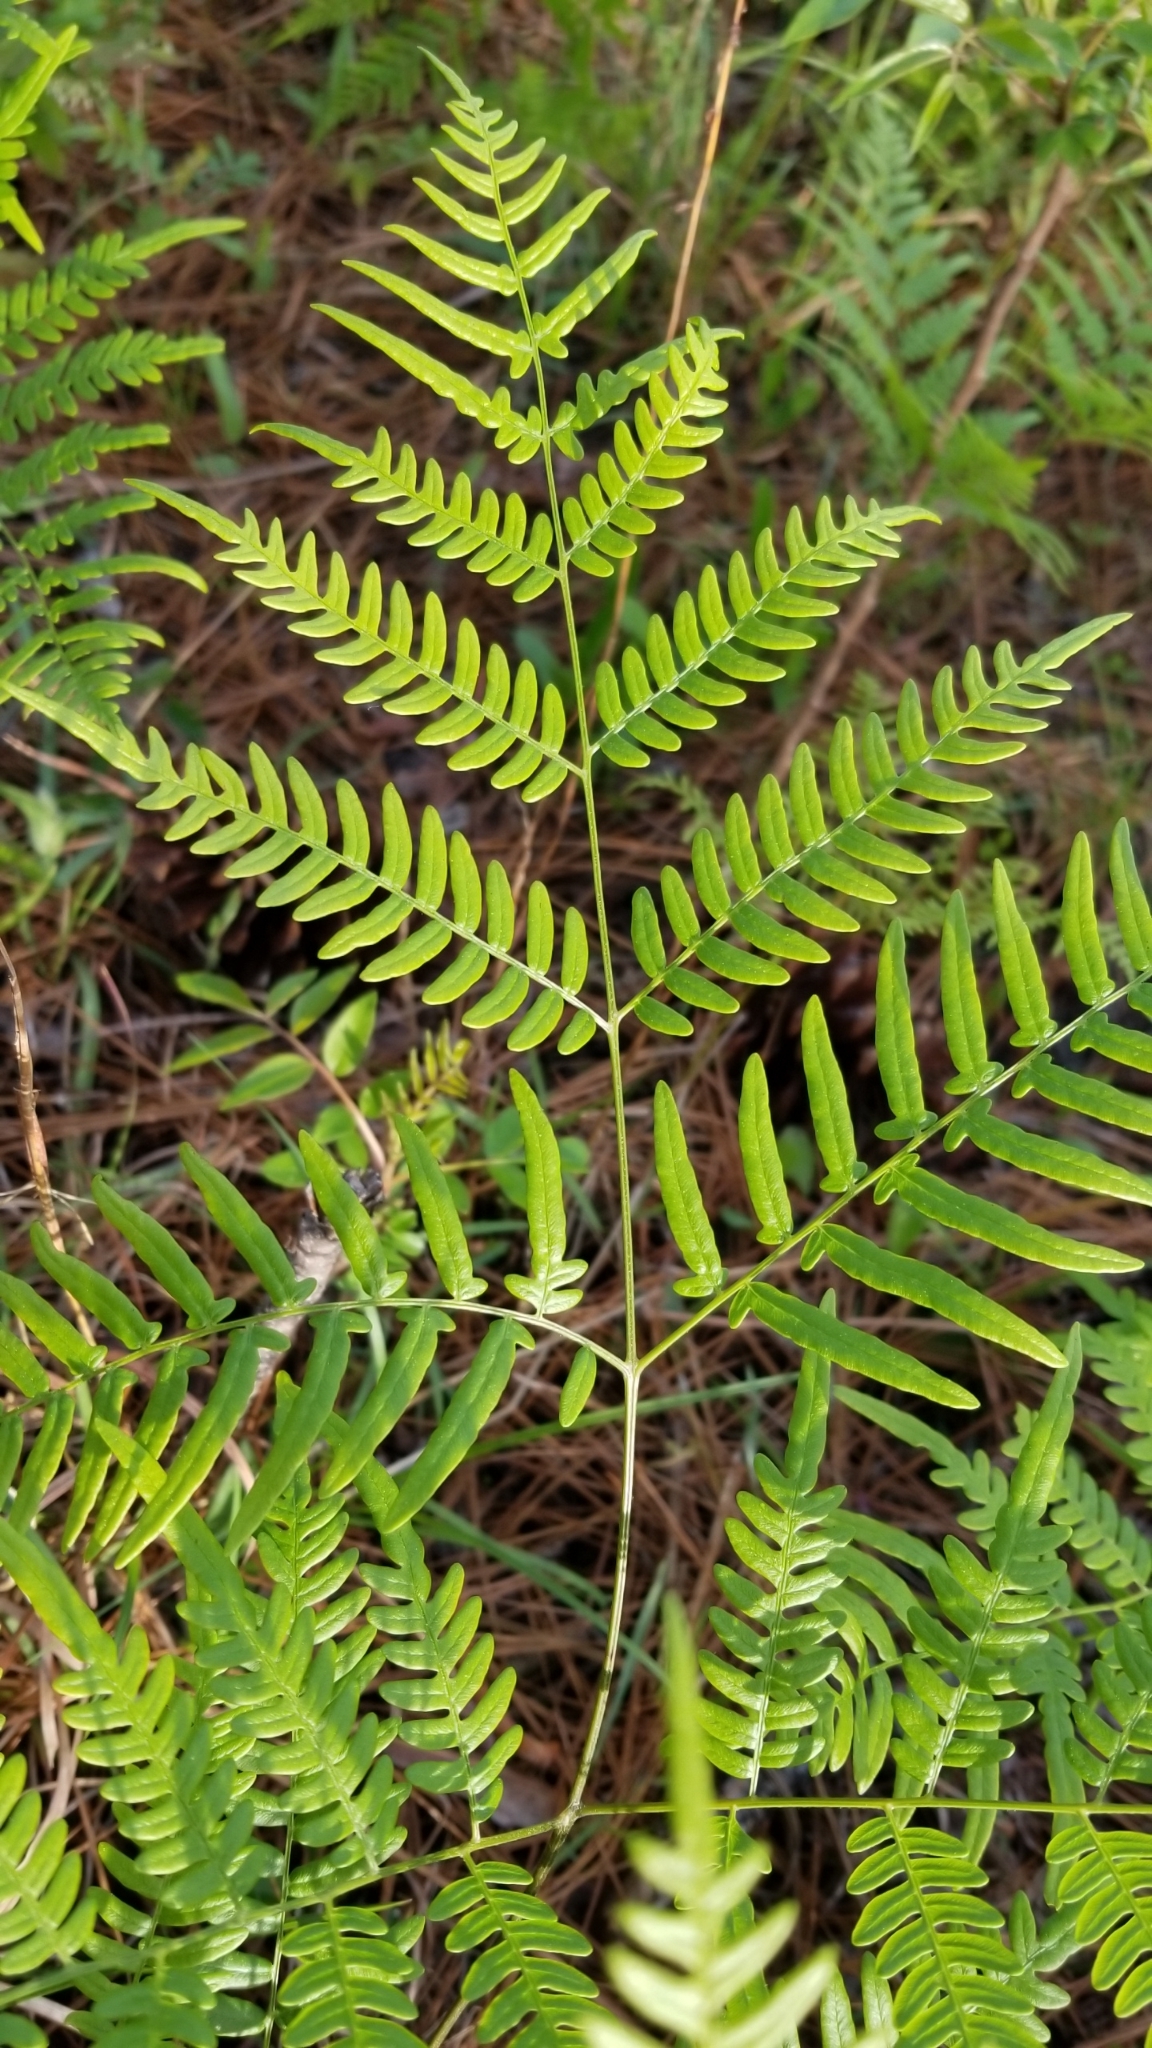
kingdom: Plantae
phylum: Tracheophyta
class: Polypodiopsida
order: Polypodiales
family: Dennstaedtiaceae
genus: Pteridium
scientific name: Pteridium
